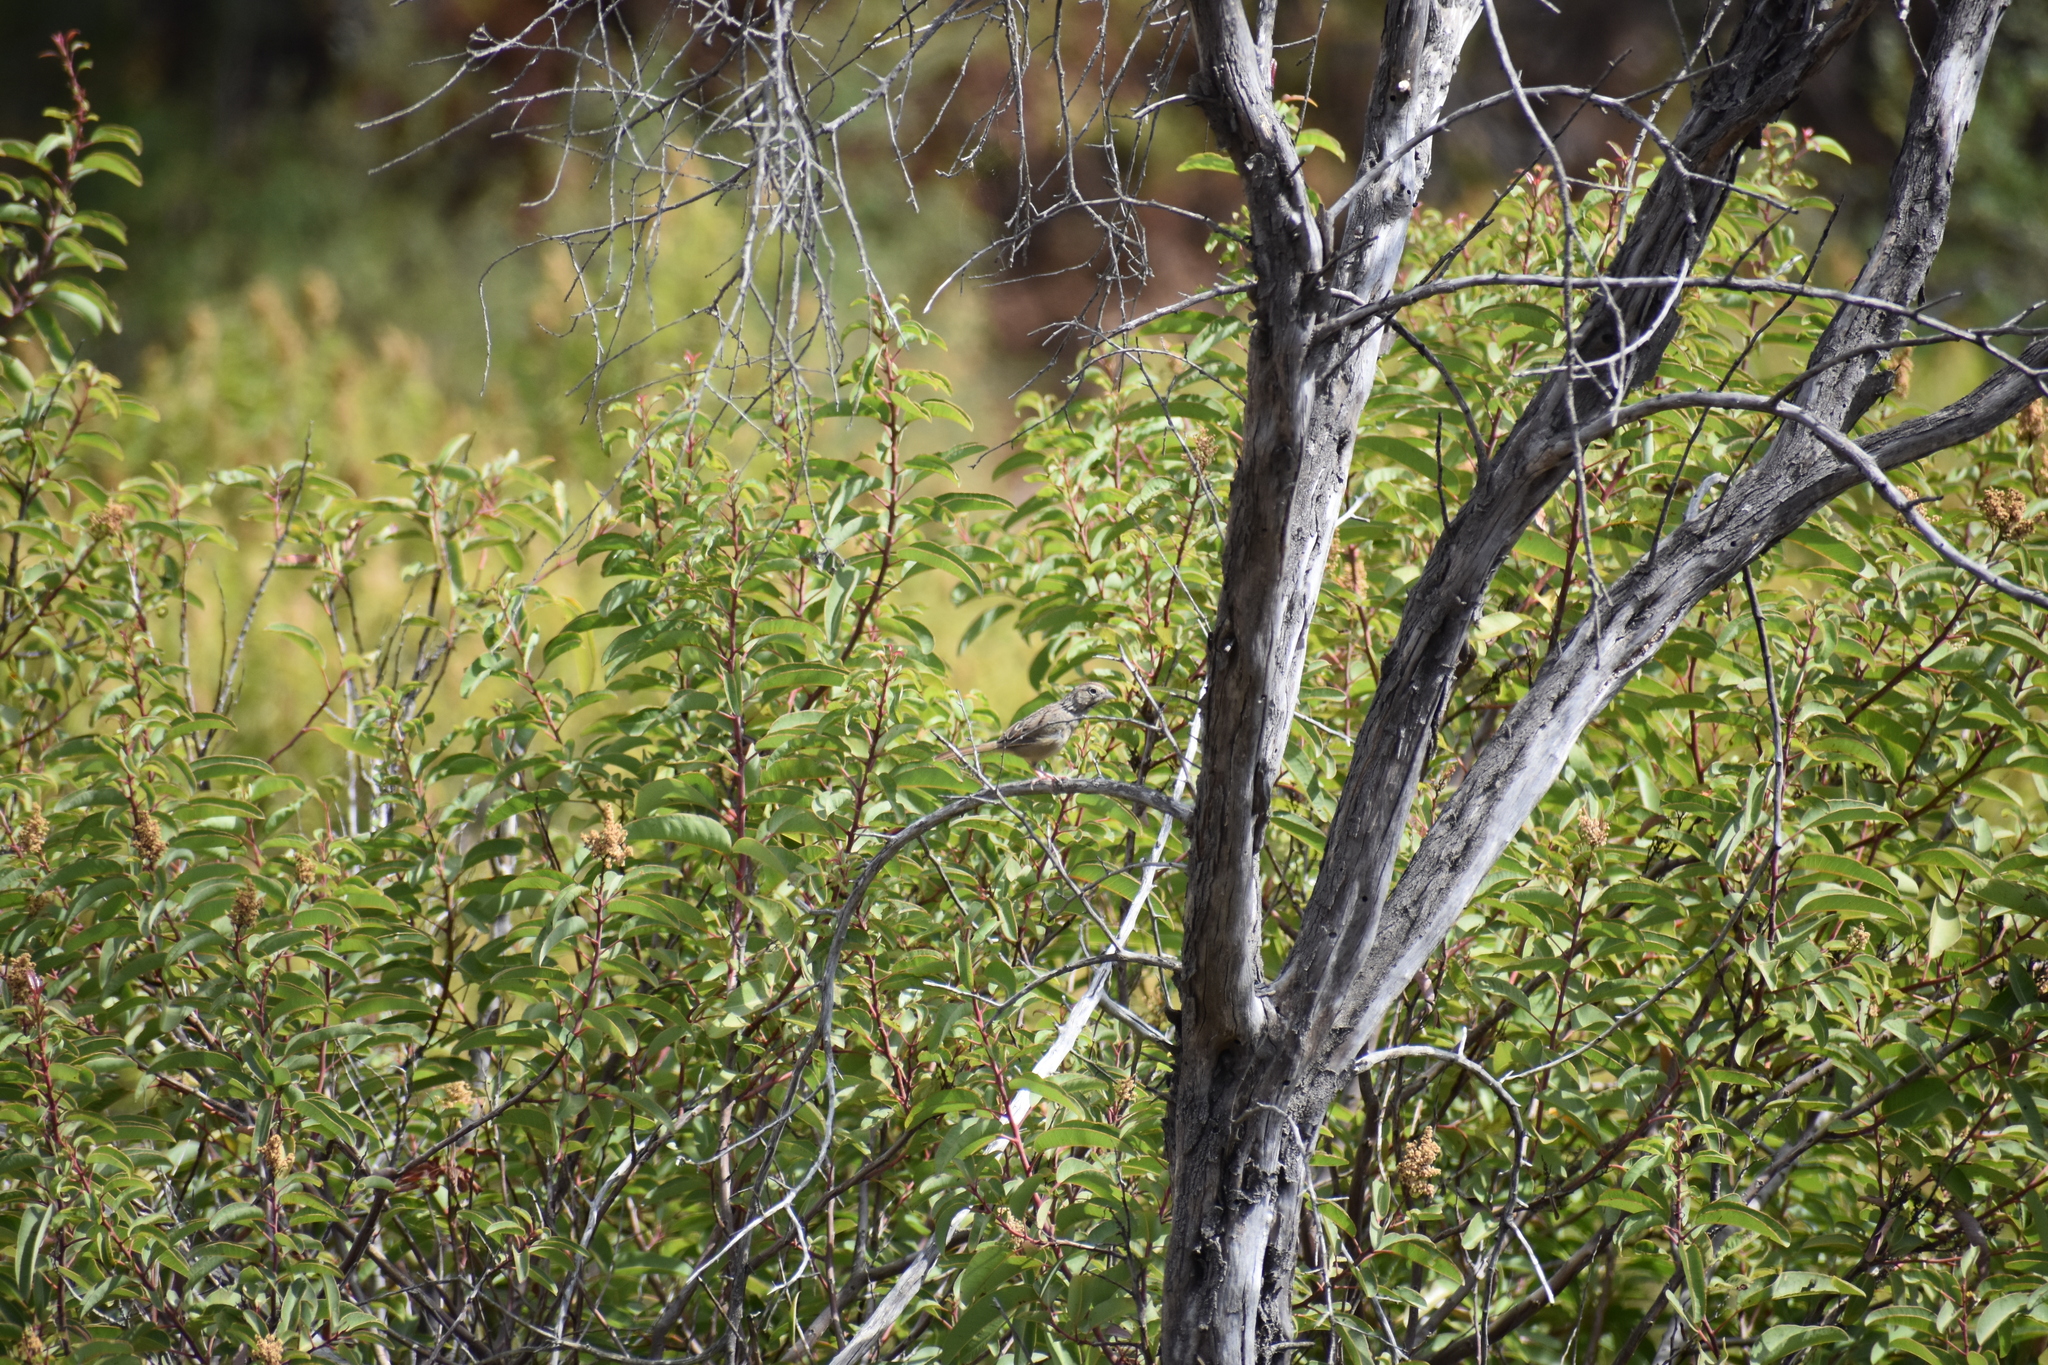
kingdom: Animalia
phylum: Chordata
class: Aves
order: Passeriformes
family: Passerellidae
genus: Aimophila
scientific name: Aimophila ruficeps
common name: Rufous-crowned sparrow
